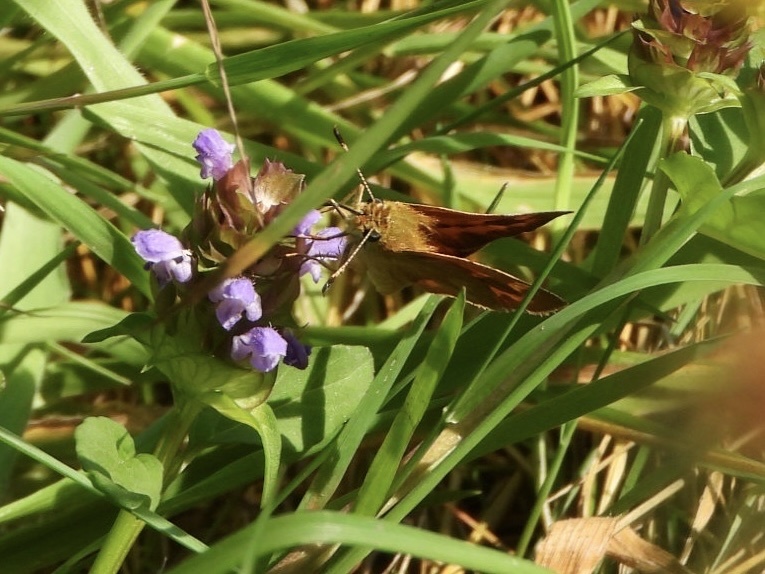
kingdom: Animalia
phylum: Arthropoda
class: Insecta
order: Lepidoptera
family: Hesperiidae
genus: Ochlodes
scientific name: Ochlodes sylvanoides
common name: Woodland skipper
